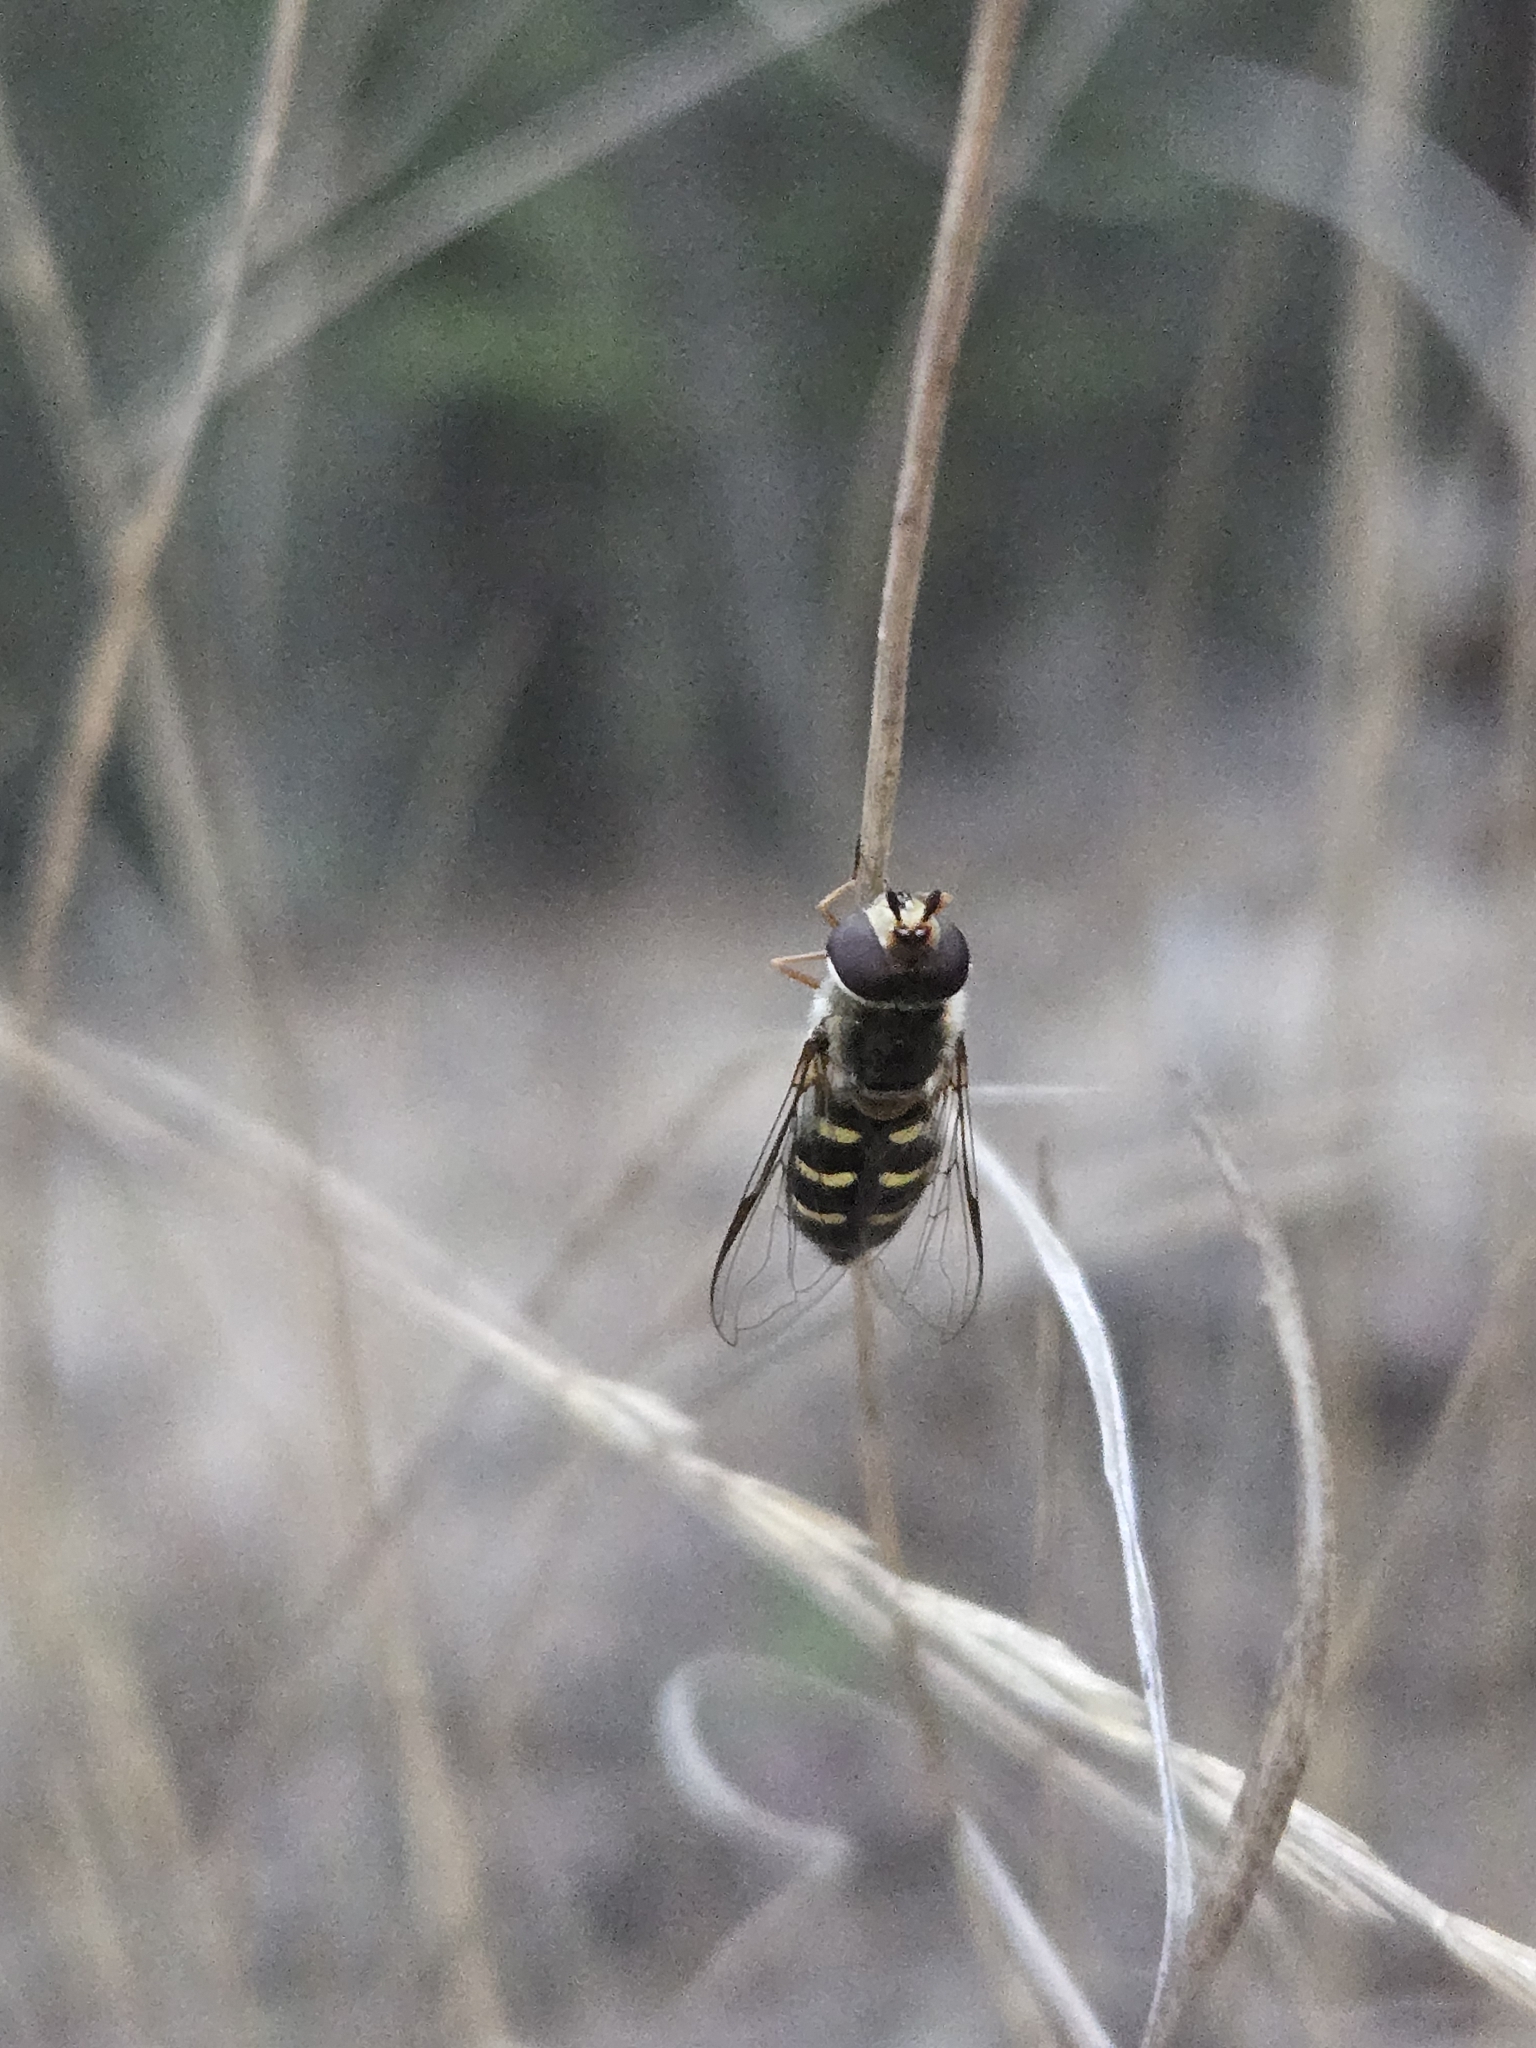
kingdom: Animalia
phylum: Arthropoda
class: Insecta
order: Diptera
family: Syrphidae
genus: Lapposyrphus
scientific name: Lapposyrphus lapponicus
